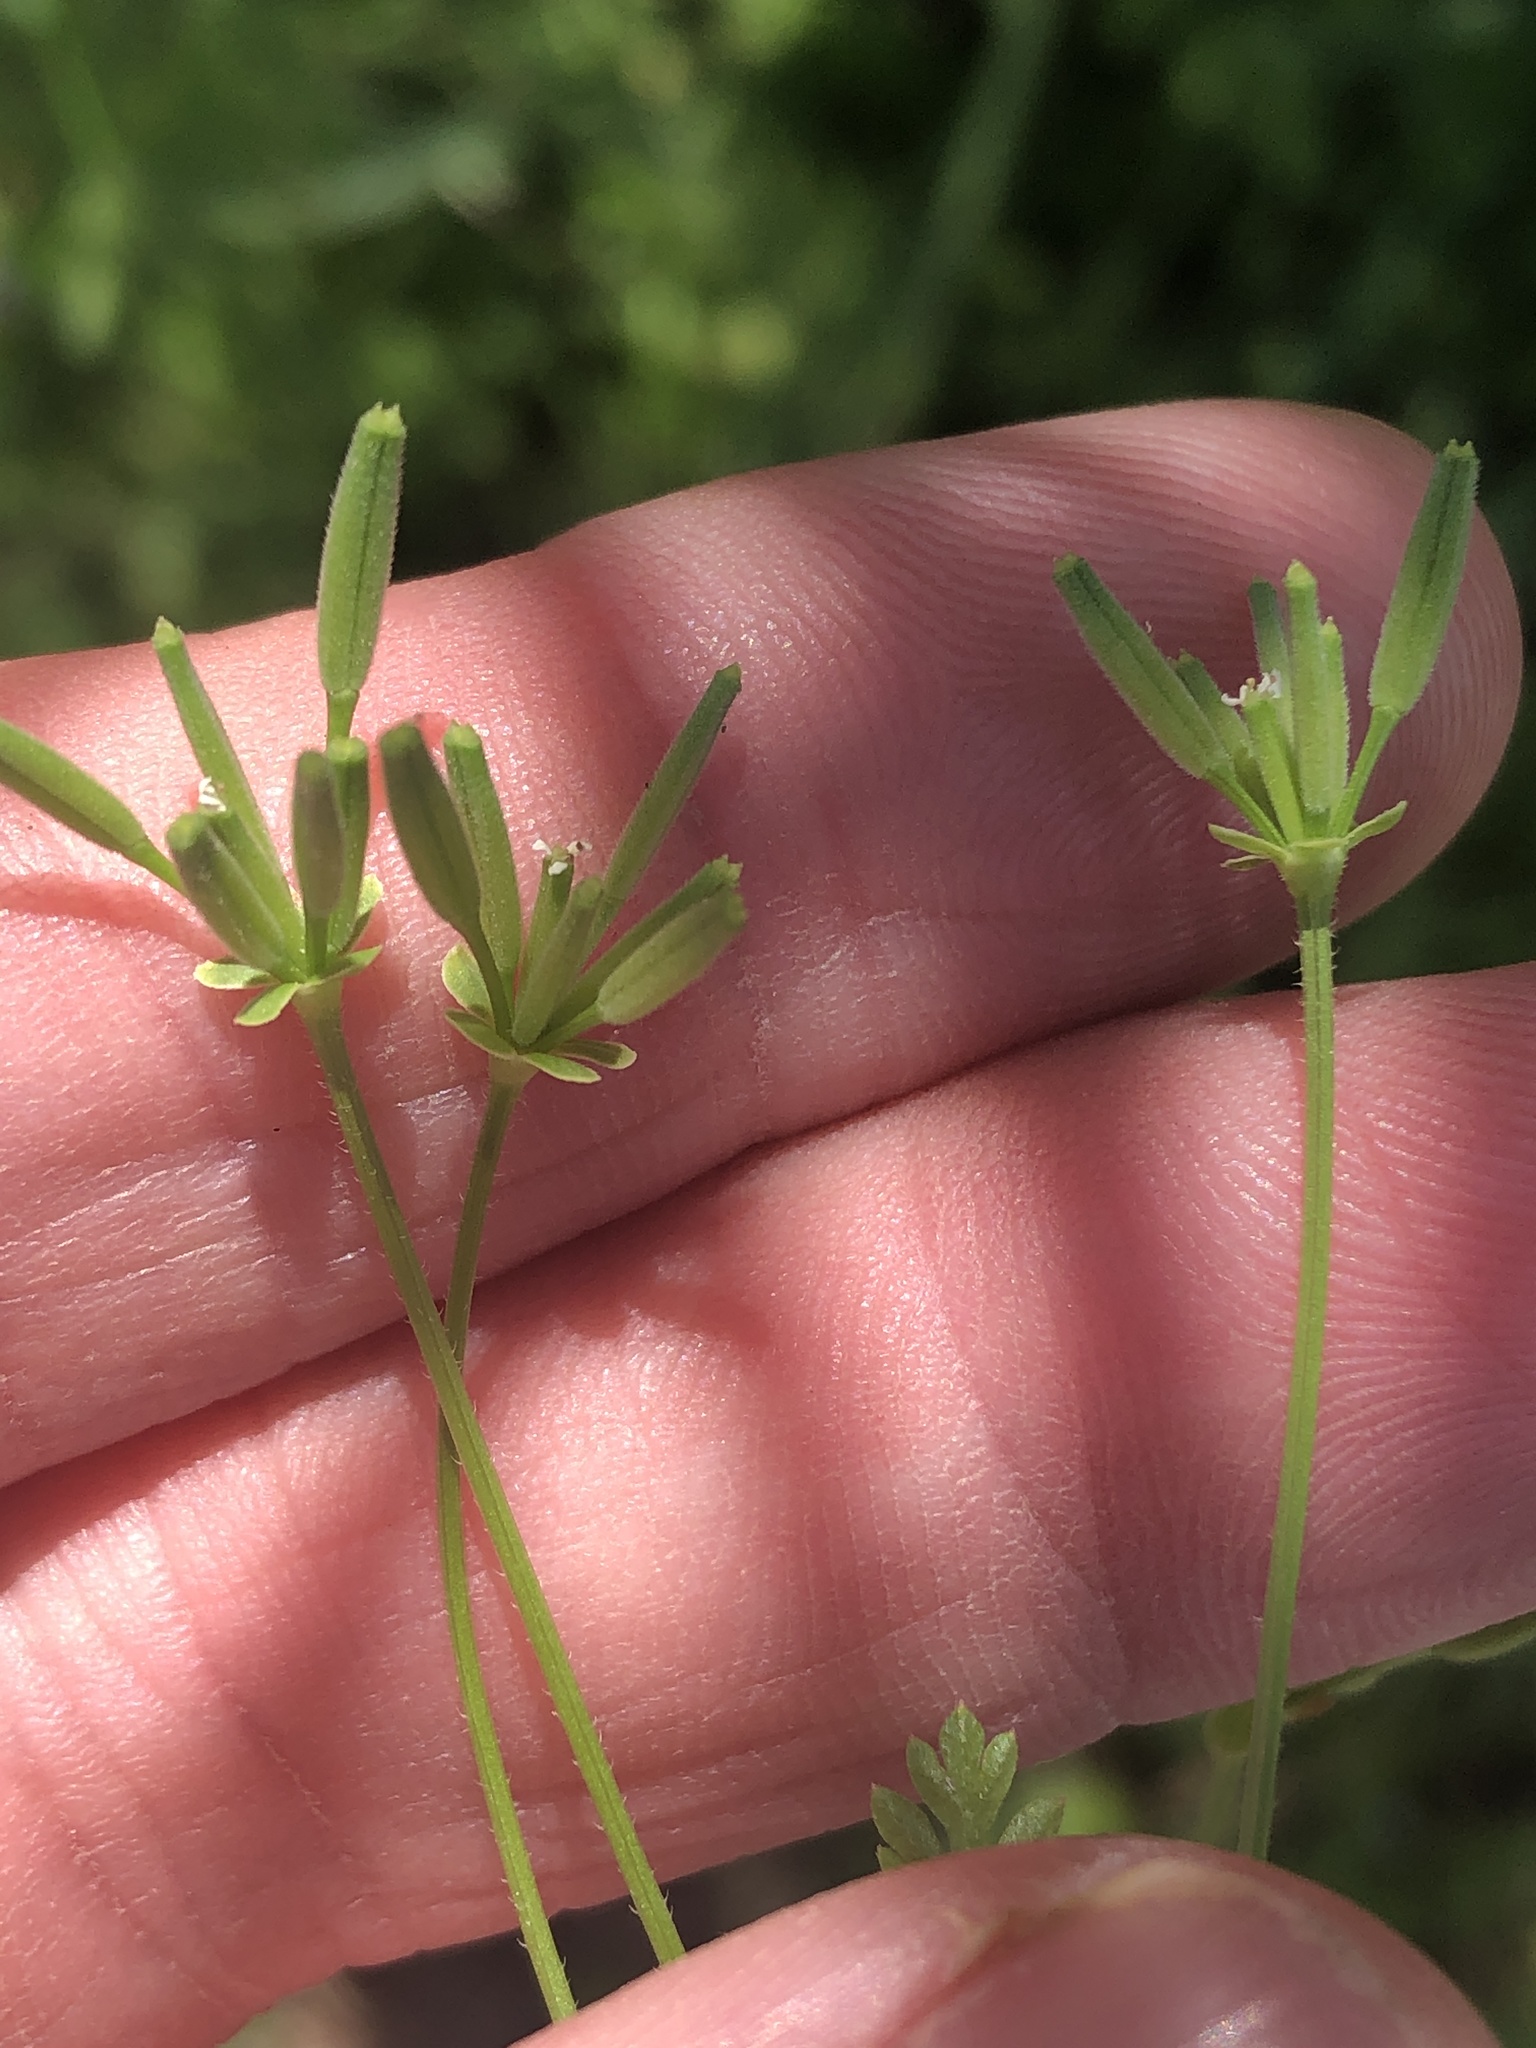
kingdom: Plantae
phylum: Tracheophyta
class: Magnoliopsida
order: Apiales
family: Apiaceae
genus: Chaerophyllum
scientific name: Chaerophyllum tainturieri
